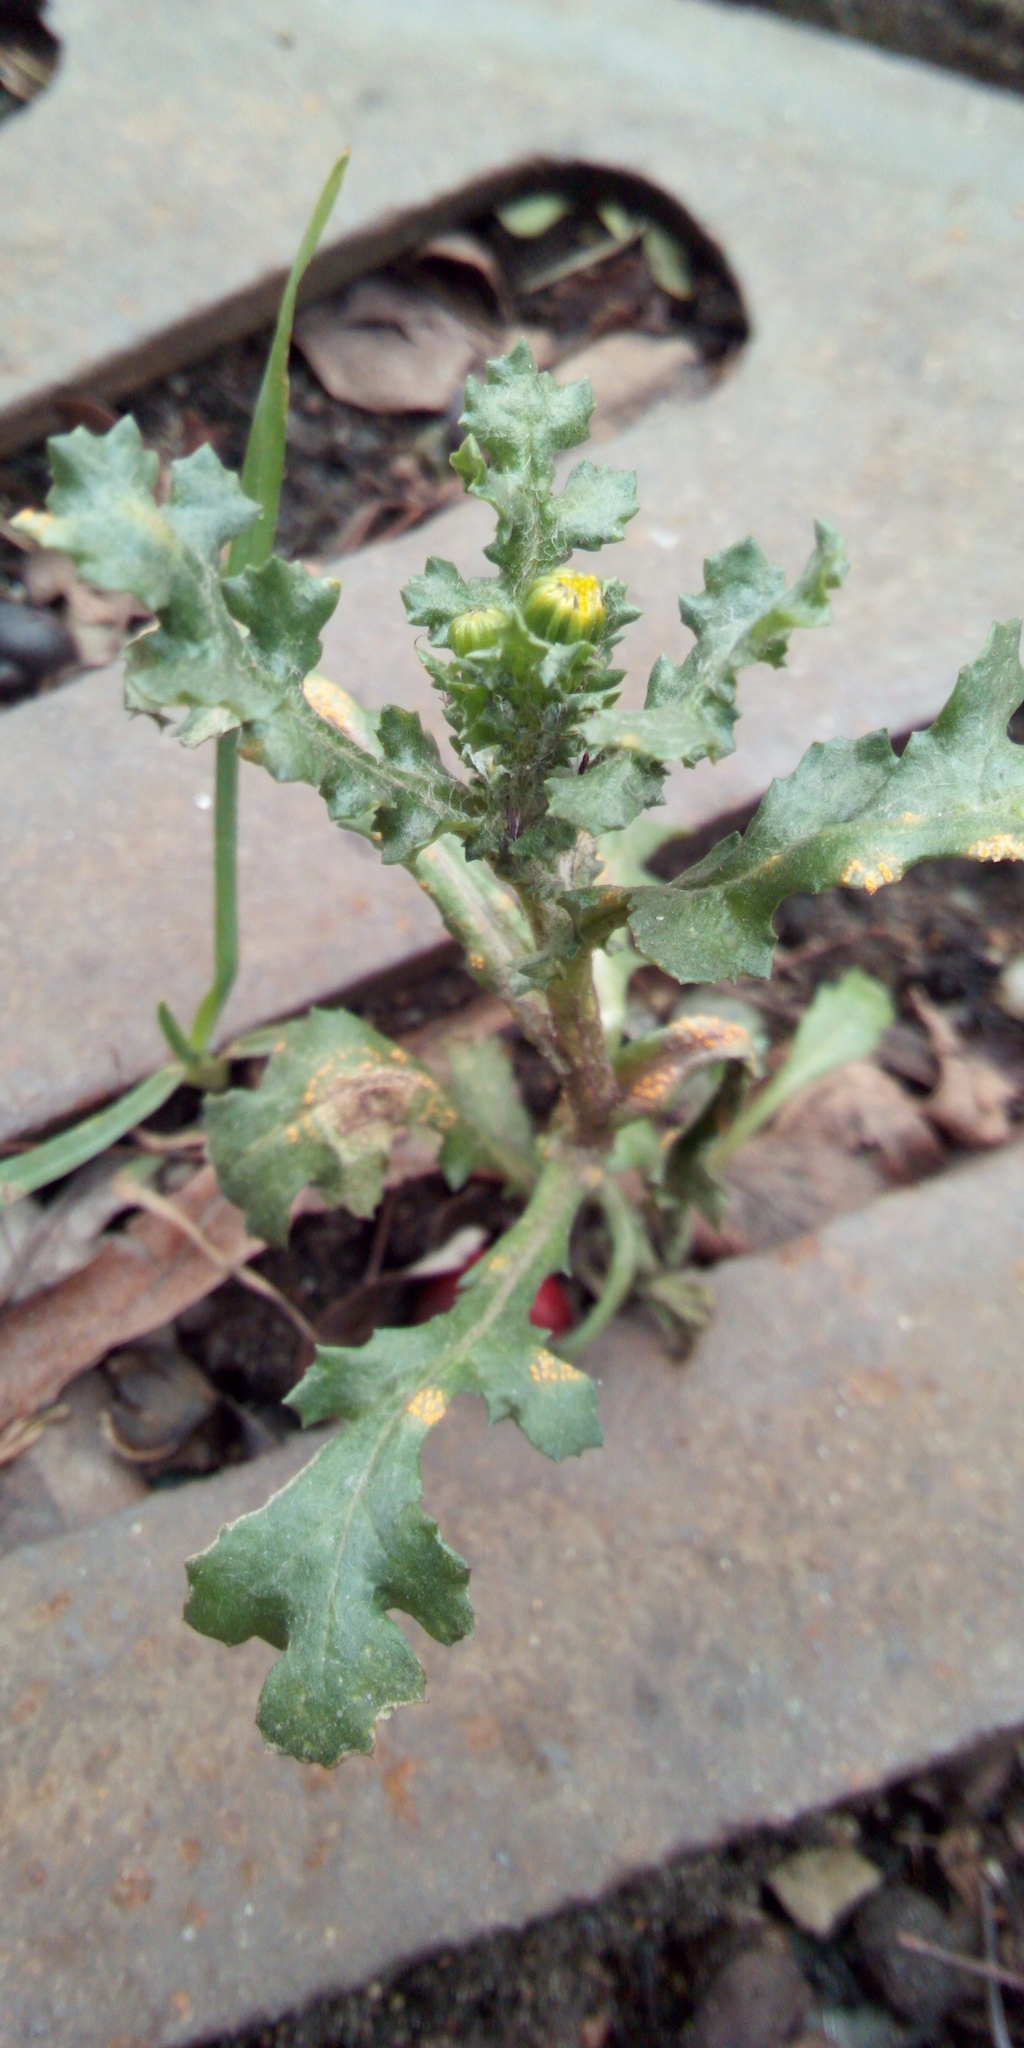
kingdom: Plantae
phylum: Tracheophyta
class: Magnoliopsida
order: Asterales
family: Asteraceae
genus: Senecio
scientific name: Senecio vulgaris
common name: Old-man-in-the-spring
